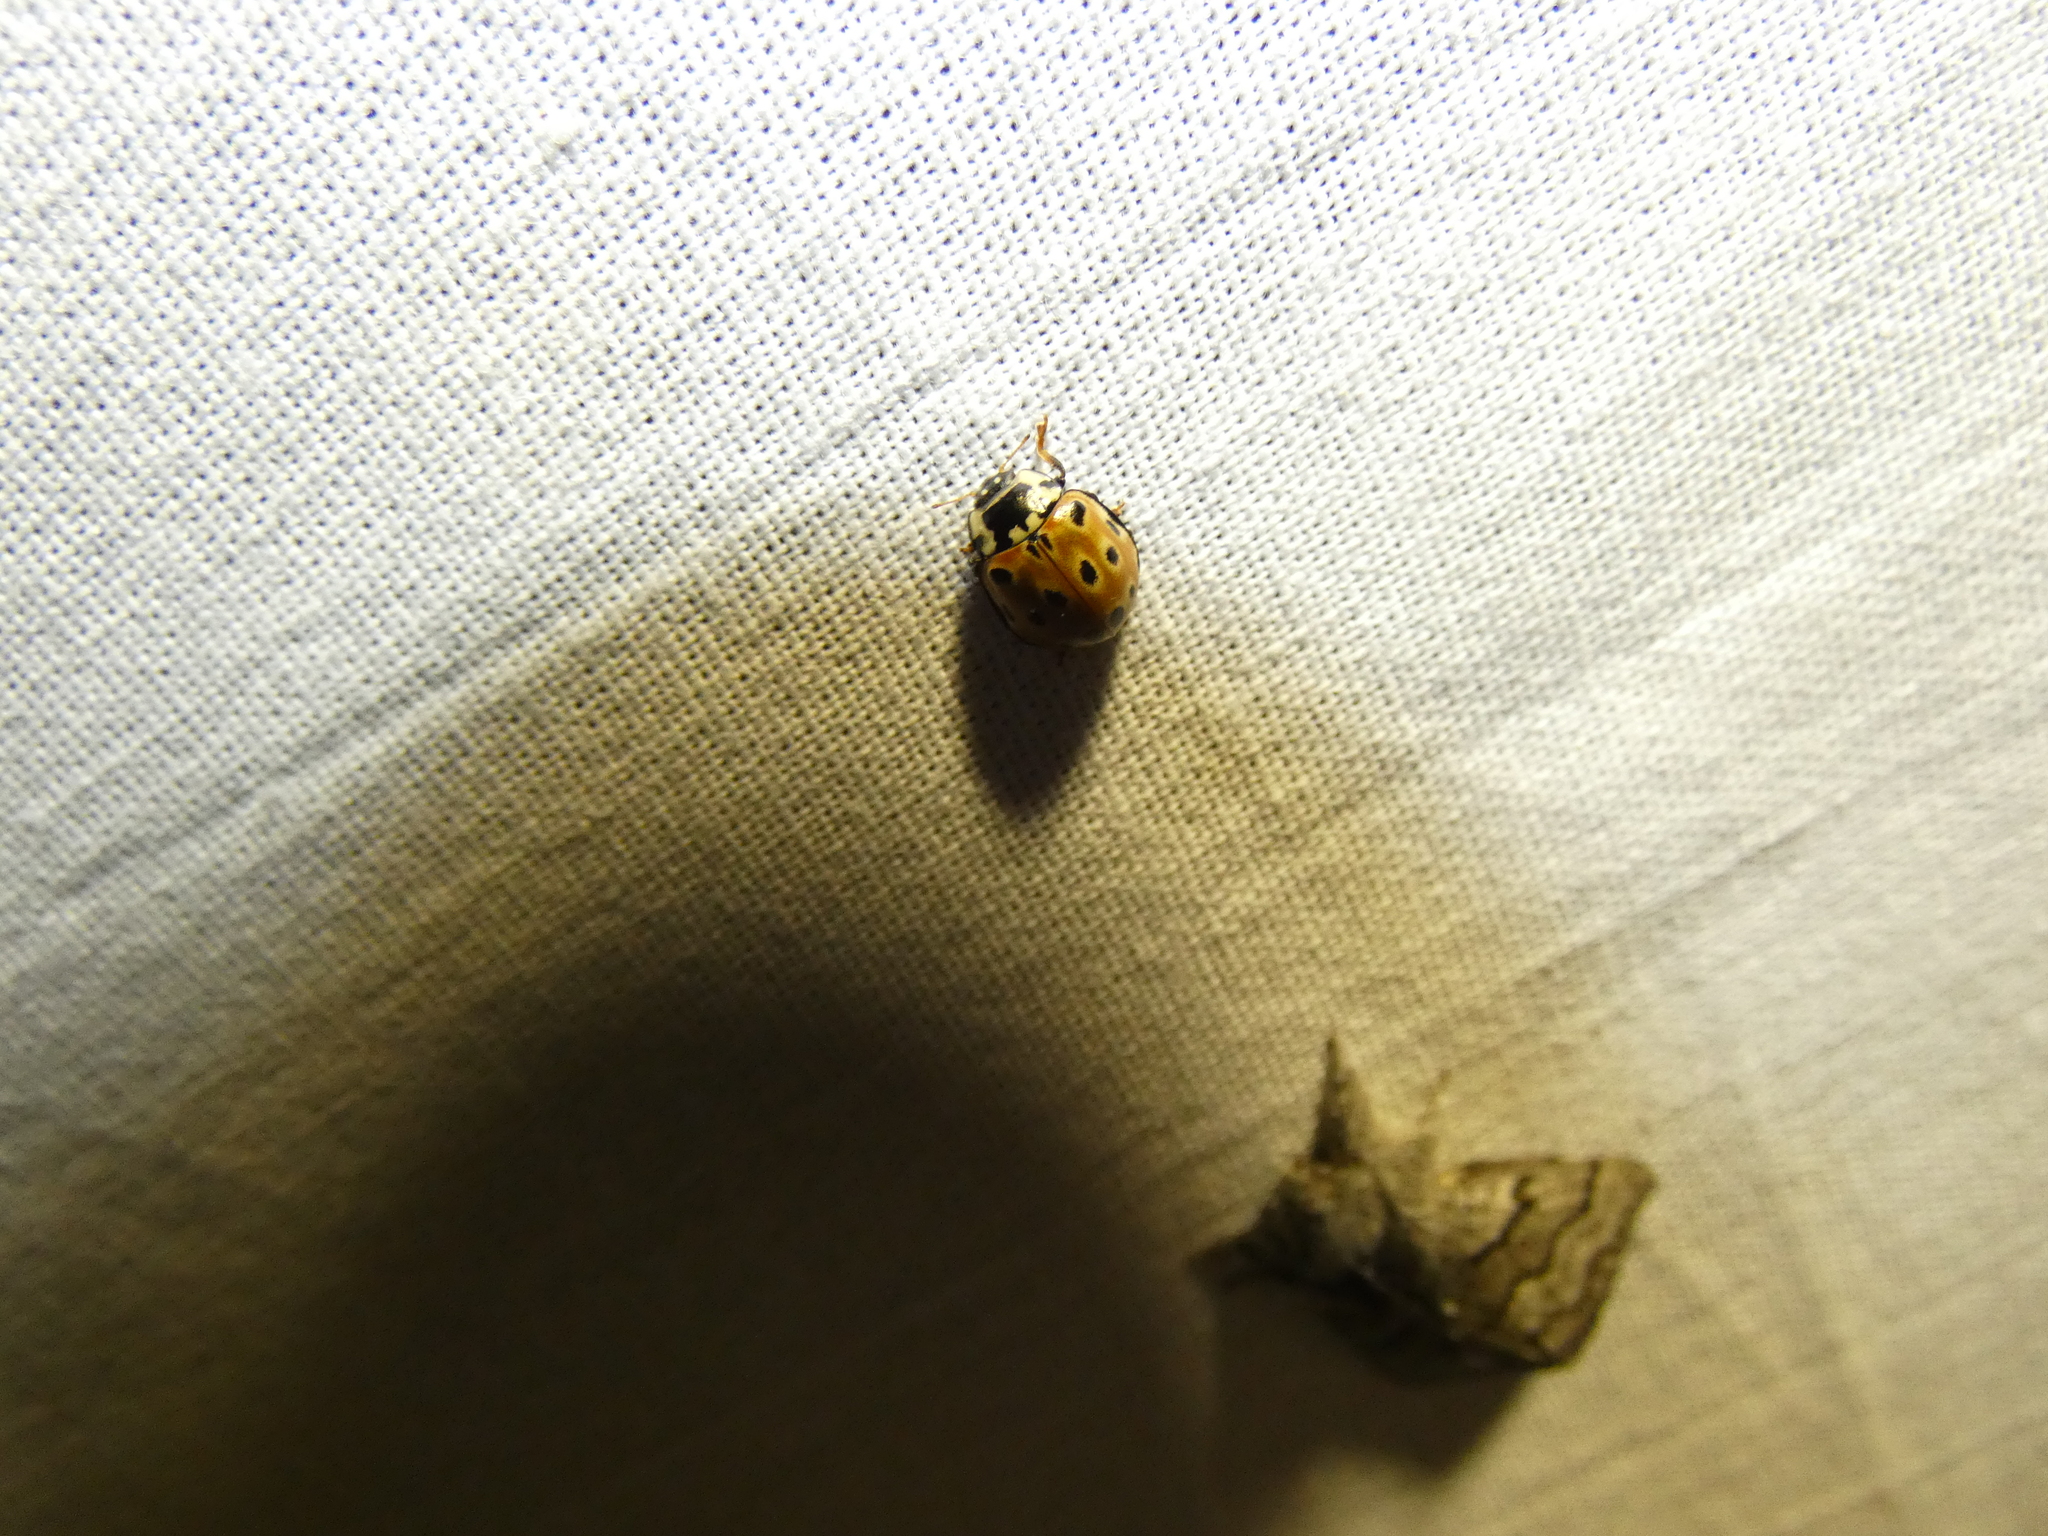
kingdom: Animalia
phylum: Arthropoda
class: Insecta
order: Coleoptera
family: Coccinellidae
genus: Anatis
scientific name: Anatis ocellata
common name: Eyed ladybird
